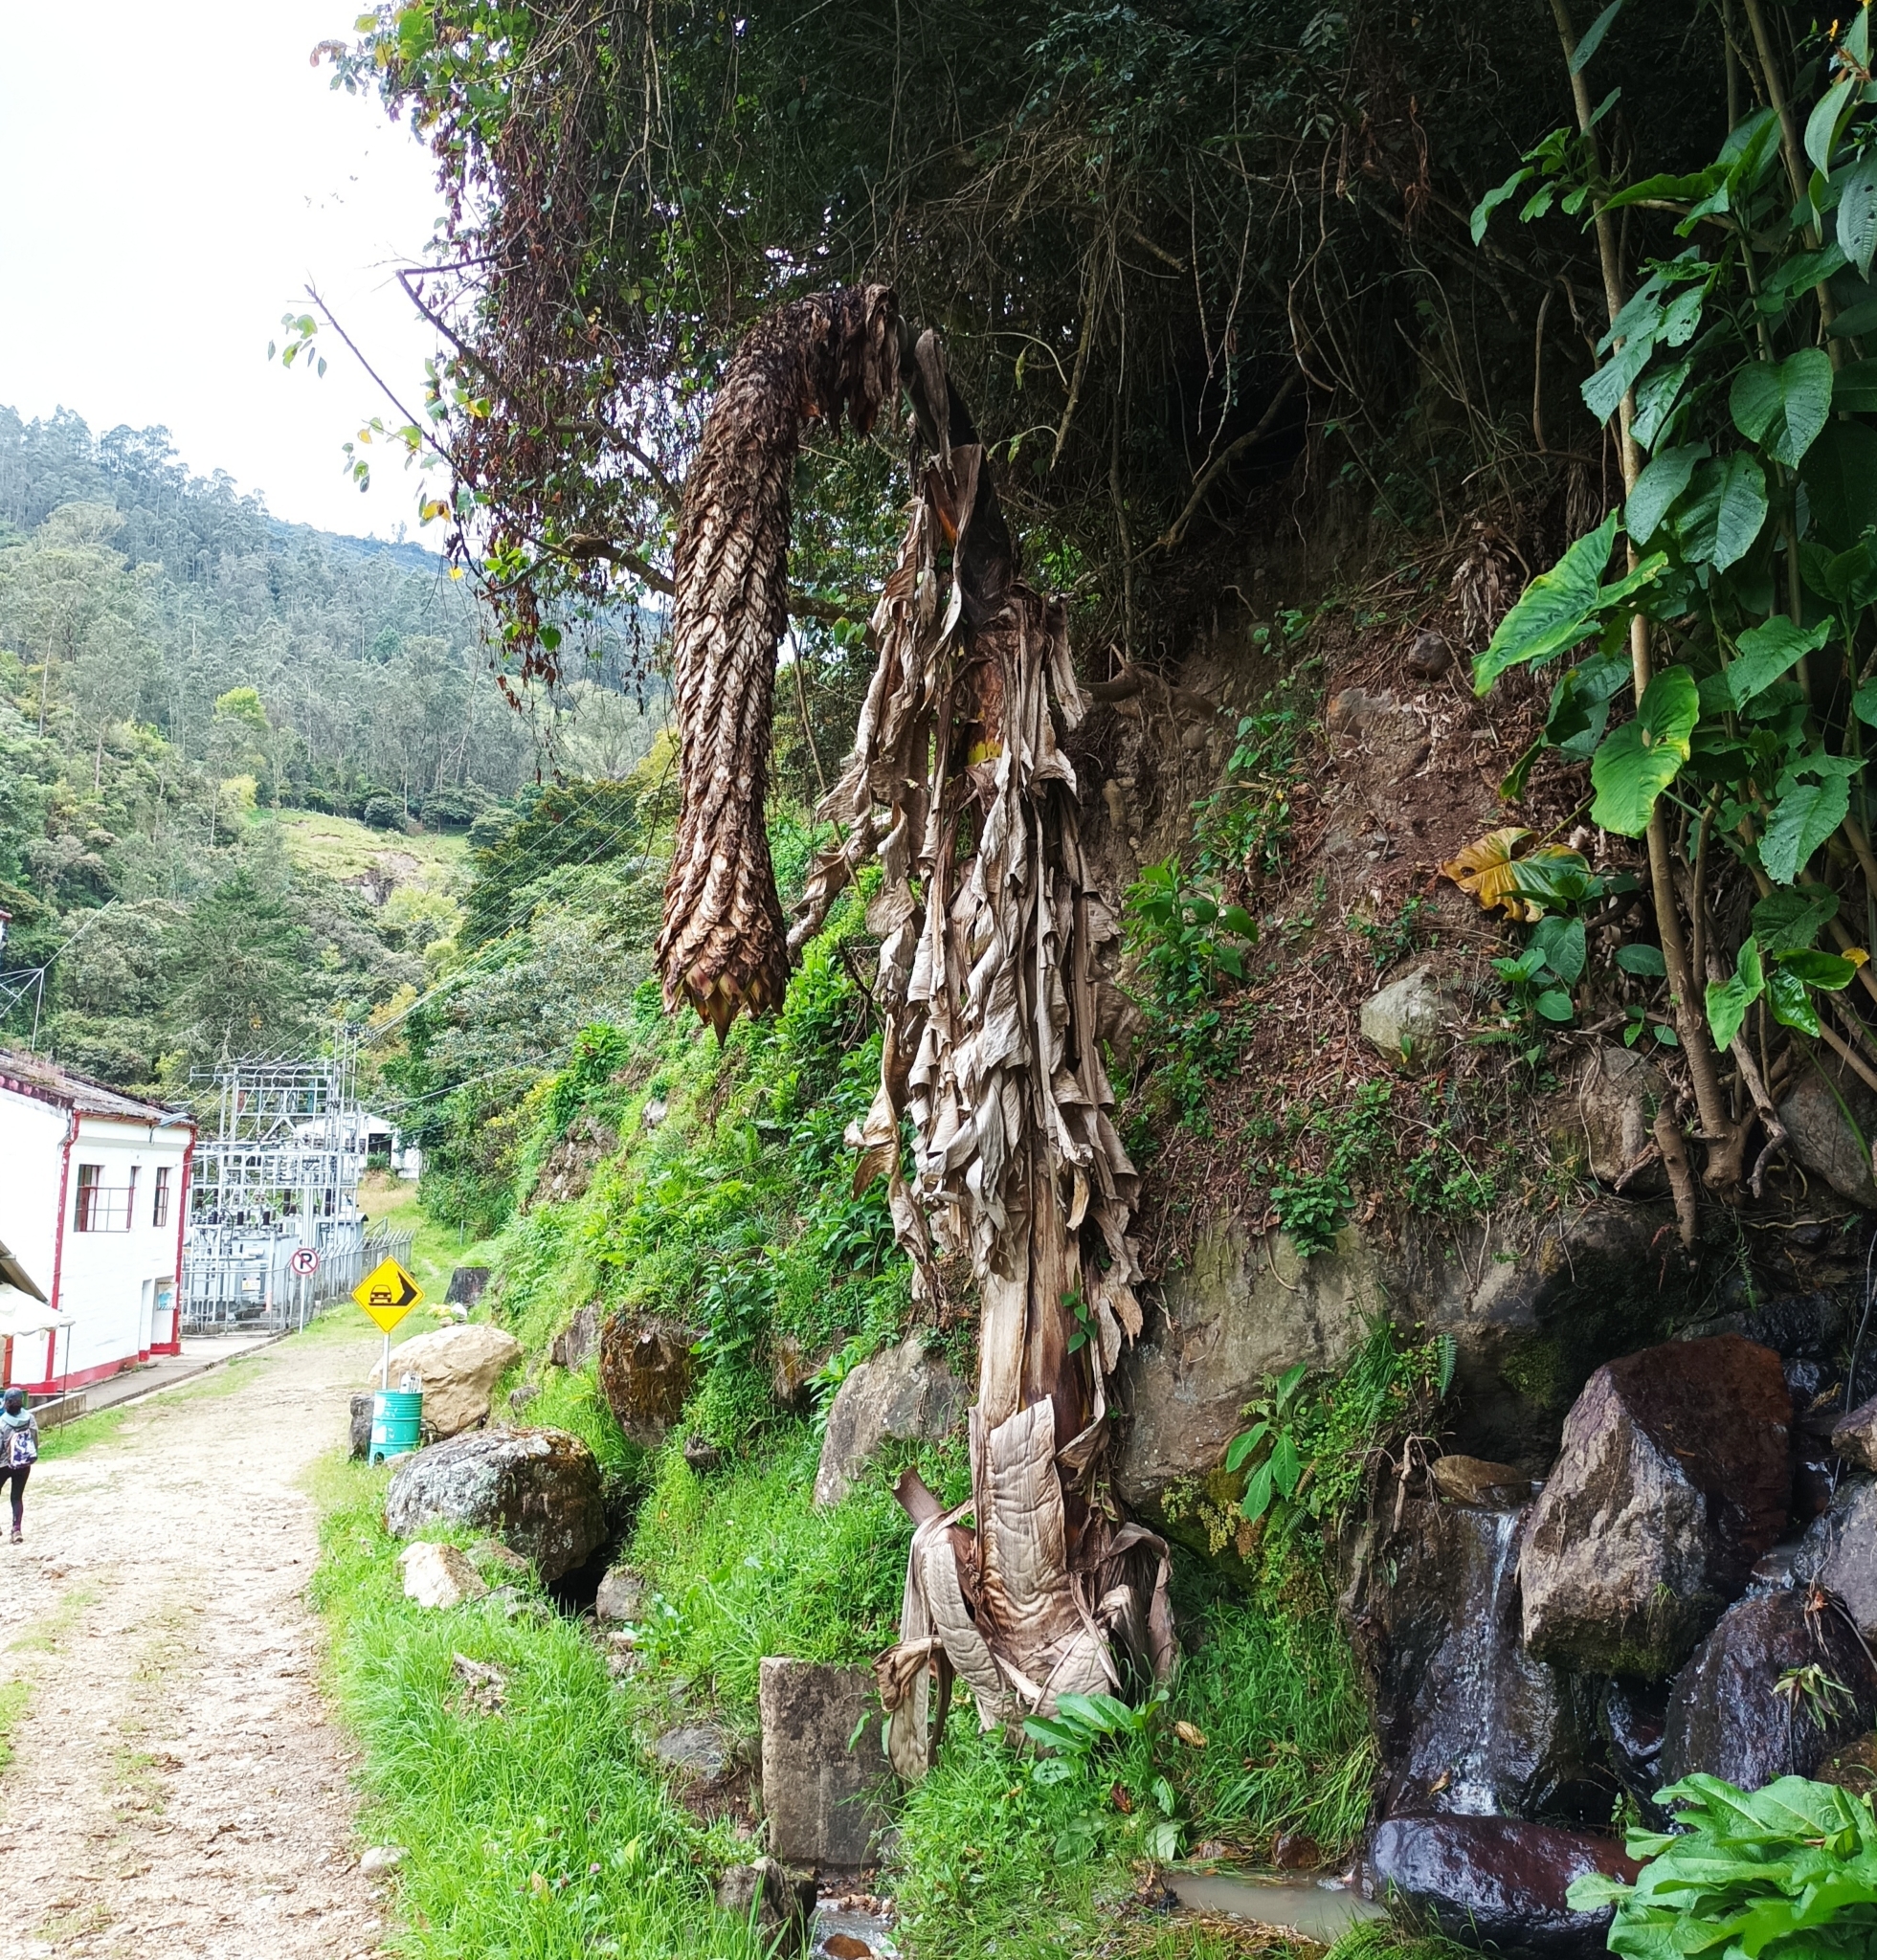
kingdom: Plantae
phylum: Tracheophyta
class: Liliopsida
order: Zingiberales
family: Musaceae
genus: Ensete
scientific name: Ensete ventricosum
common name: Abyssinian banana
